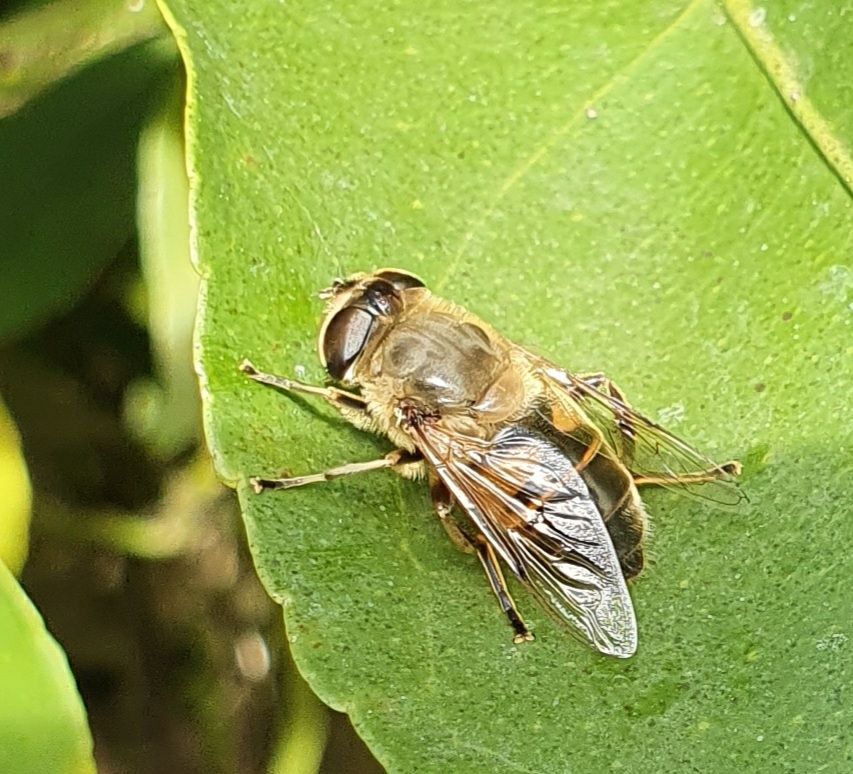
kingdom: Animalia
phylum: Arthropoda
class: Insecta
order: Diptera
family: Syrphidae
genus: Eristalis
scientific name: Eristalis tenax
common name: Drone fly
